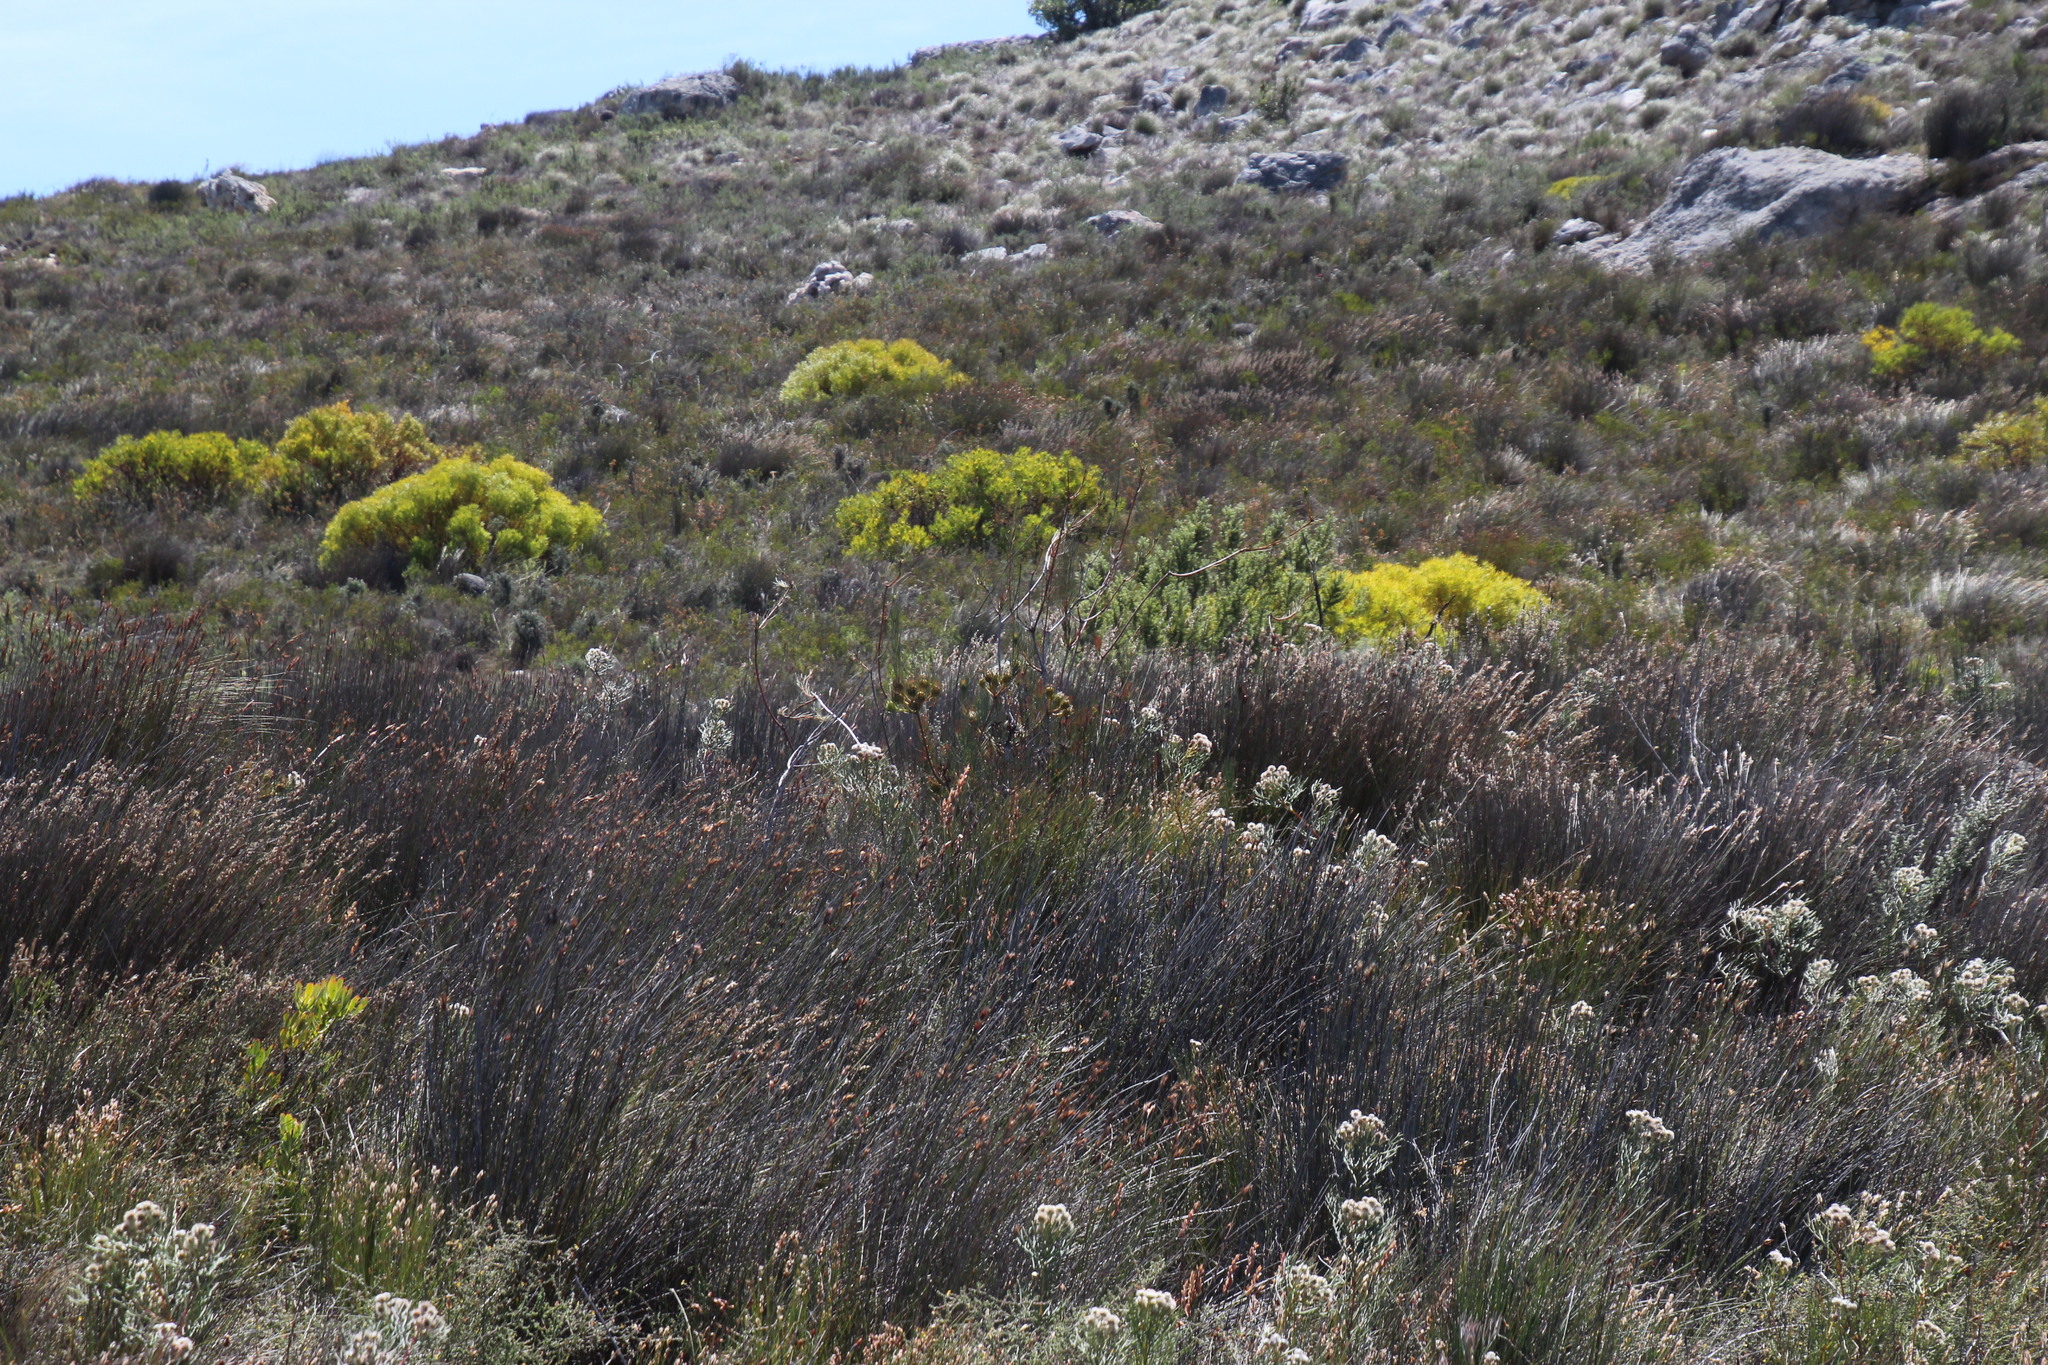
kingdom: Plantae
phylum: Tracheophyta
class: Magnoliopsida
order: Proteales
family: Proteaceae
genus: Leucadendron
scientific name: Leucadendron salignum
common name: Common sunshine conebush
